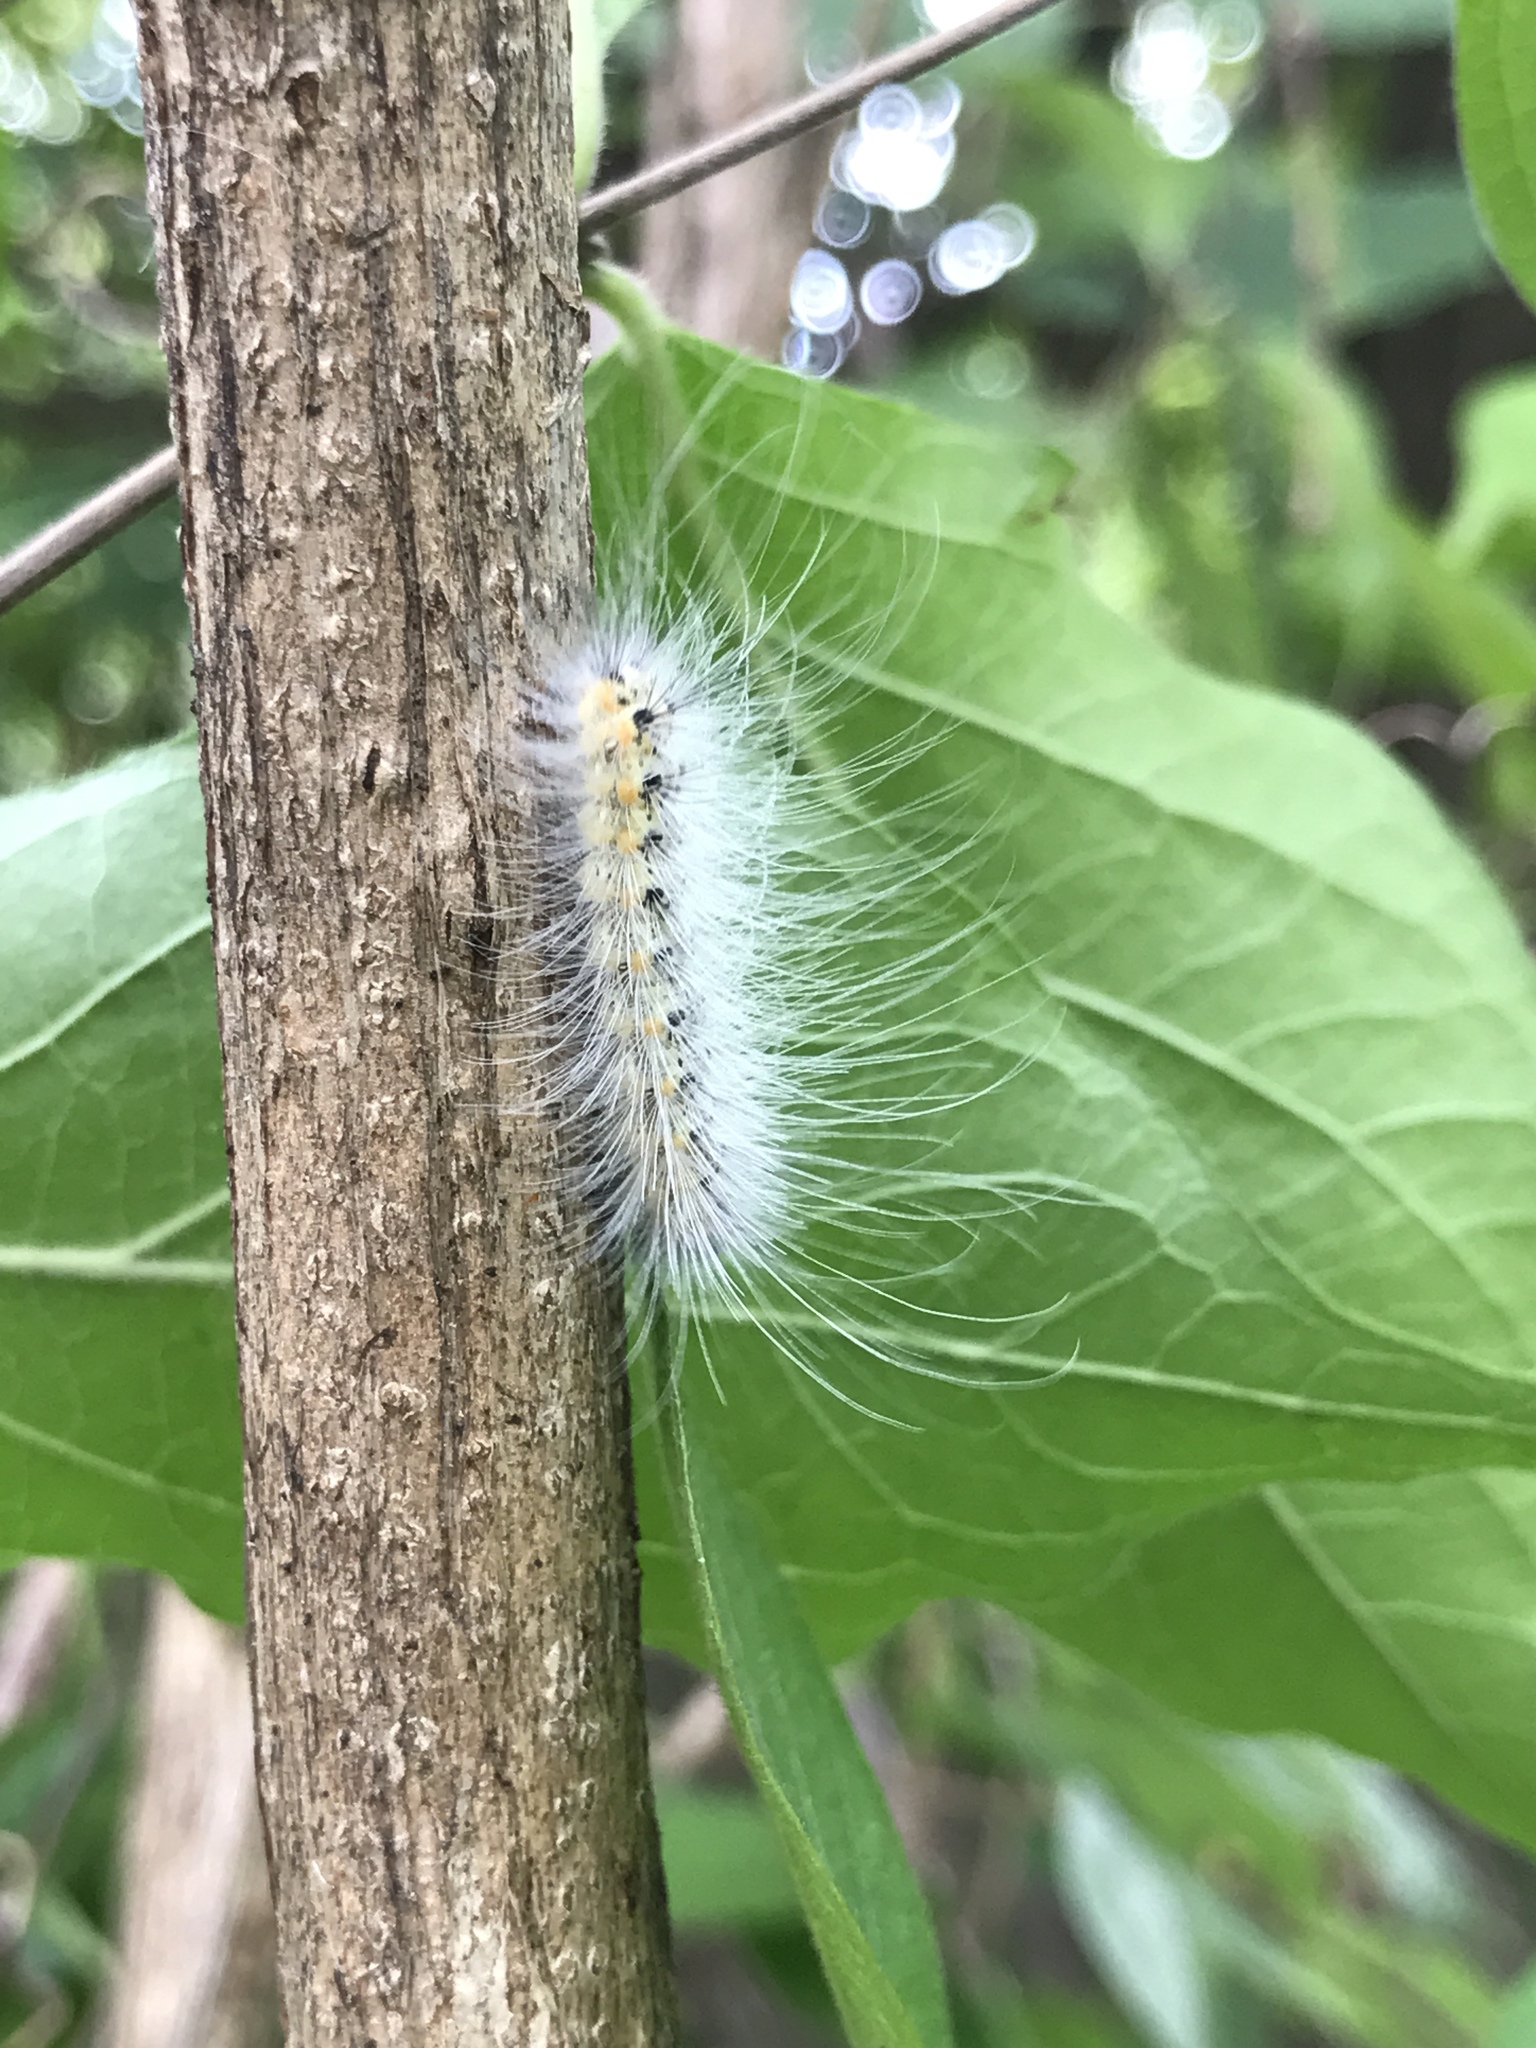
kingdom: Animalia
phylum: Arthropoda
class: Insecta
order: Lepidoptera
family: Erebidae
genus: Hyphantria
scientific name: Hyphantria cunea
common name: American white moth
